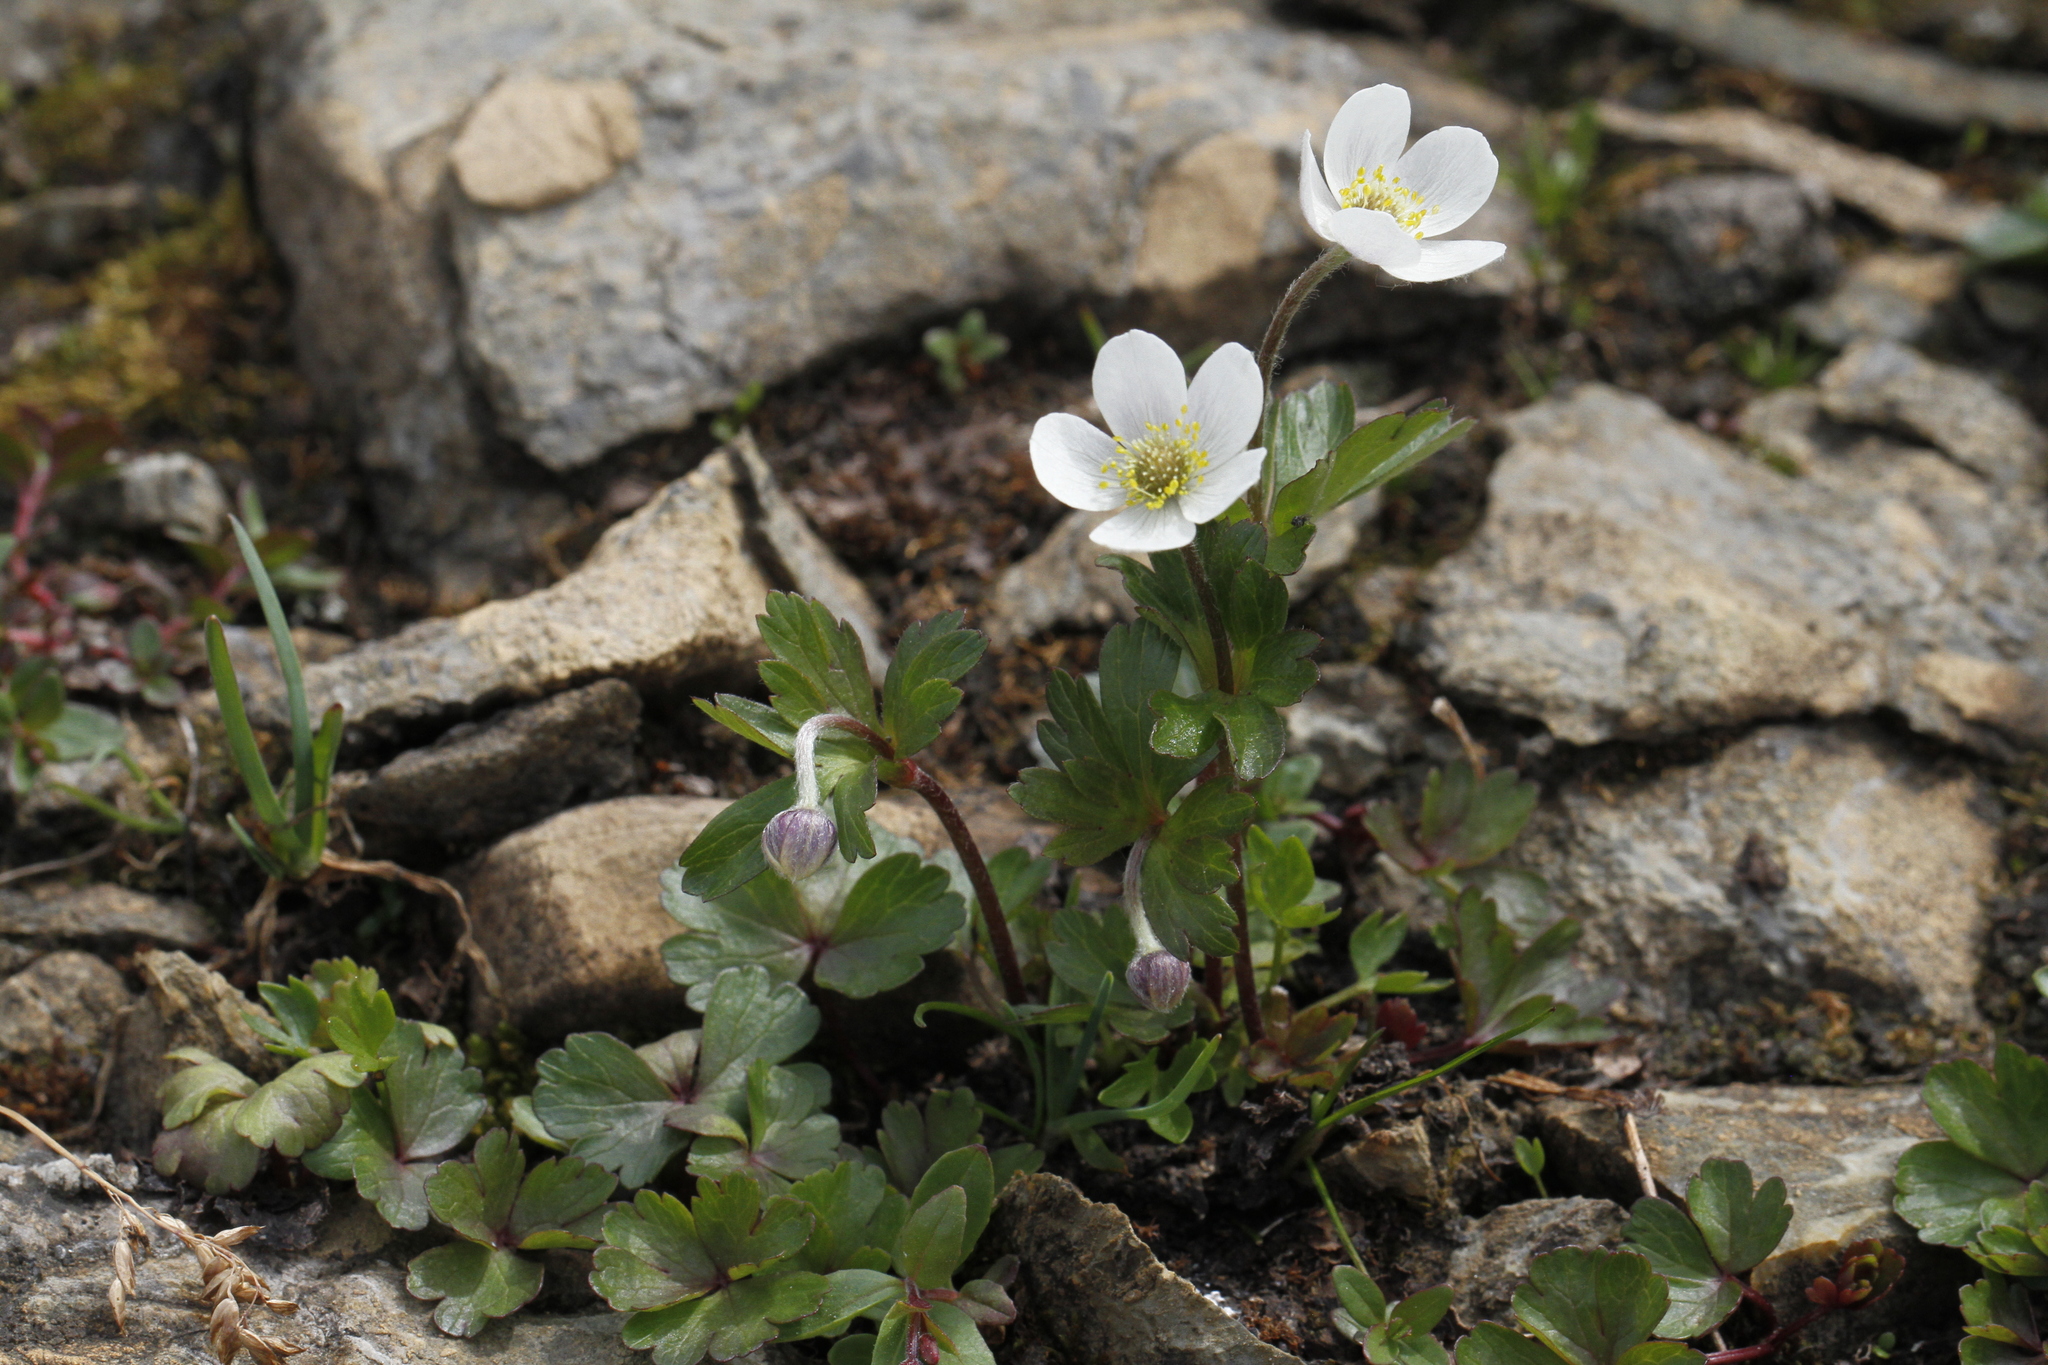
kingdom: Plantae
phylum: Tracheophyta
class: Magnoliopsida
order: Ranunculales
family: Ranunculaceae
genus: Anemone
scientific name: Anemone parviflora
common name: Northern anemone
